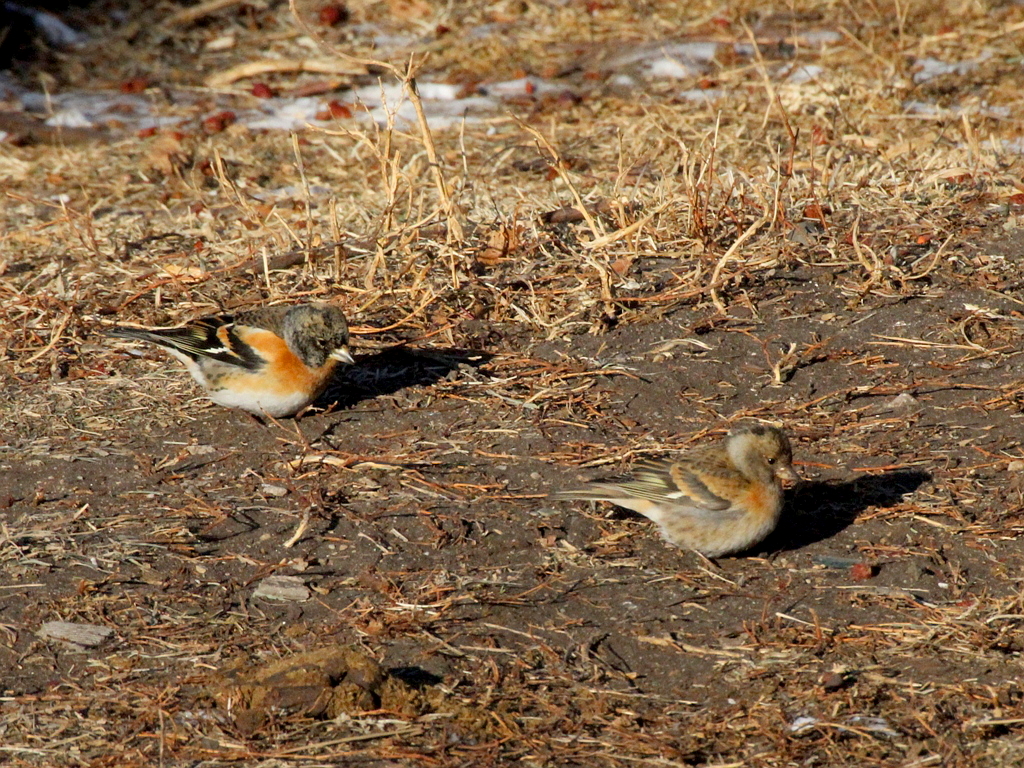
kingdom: Animalia
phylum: Chordata
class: Aves
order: Passeriformes
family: Fringillidae
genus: Fringilla
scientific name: Fringilla montifringilla
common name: Brambling
